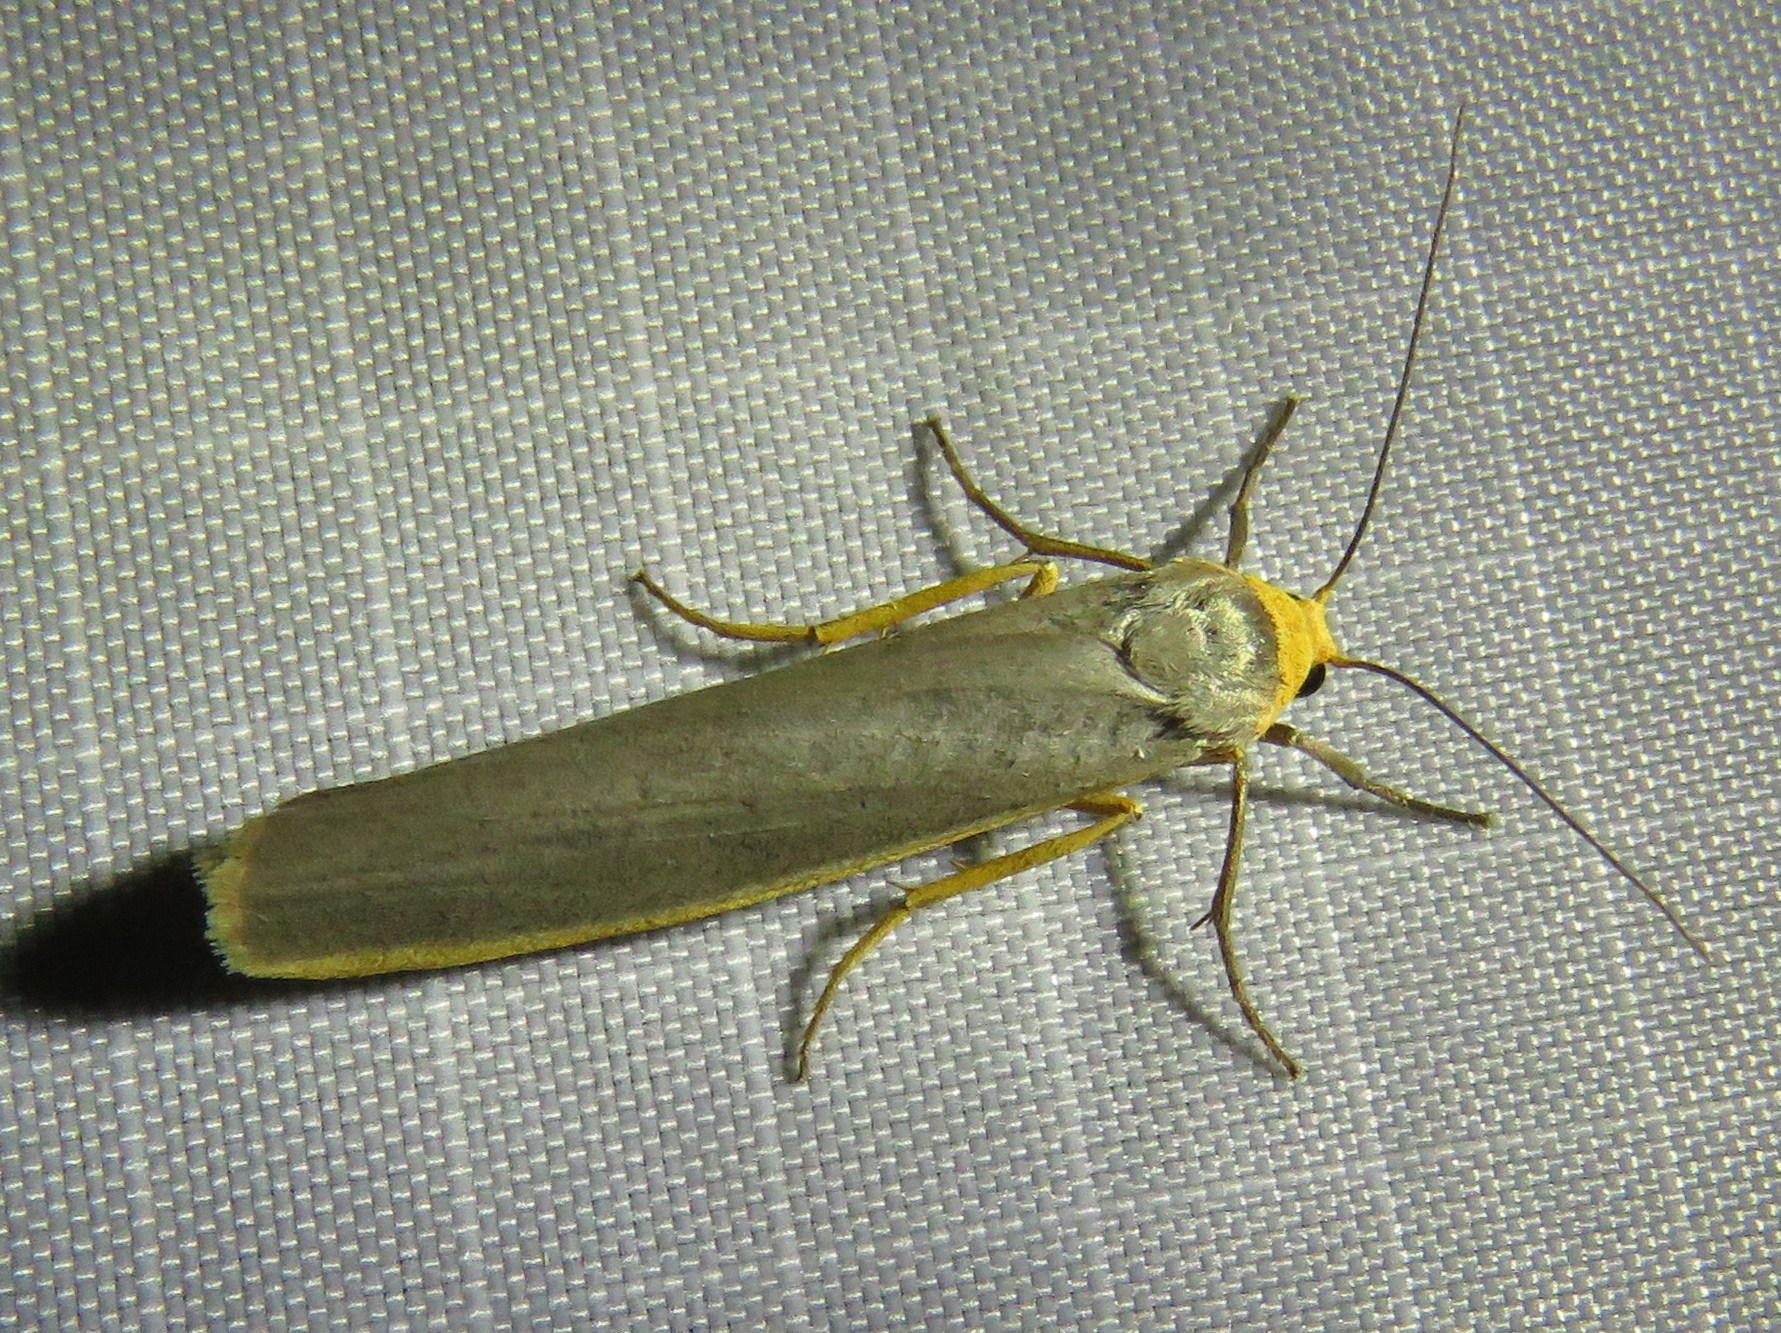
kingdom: Animalia
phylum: Arthropoda
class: Insecta
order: Lepidoptera
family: Erebidae
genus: Manulea
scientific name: Manulea complana
